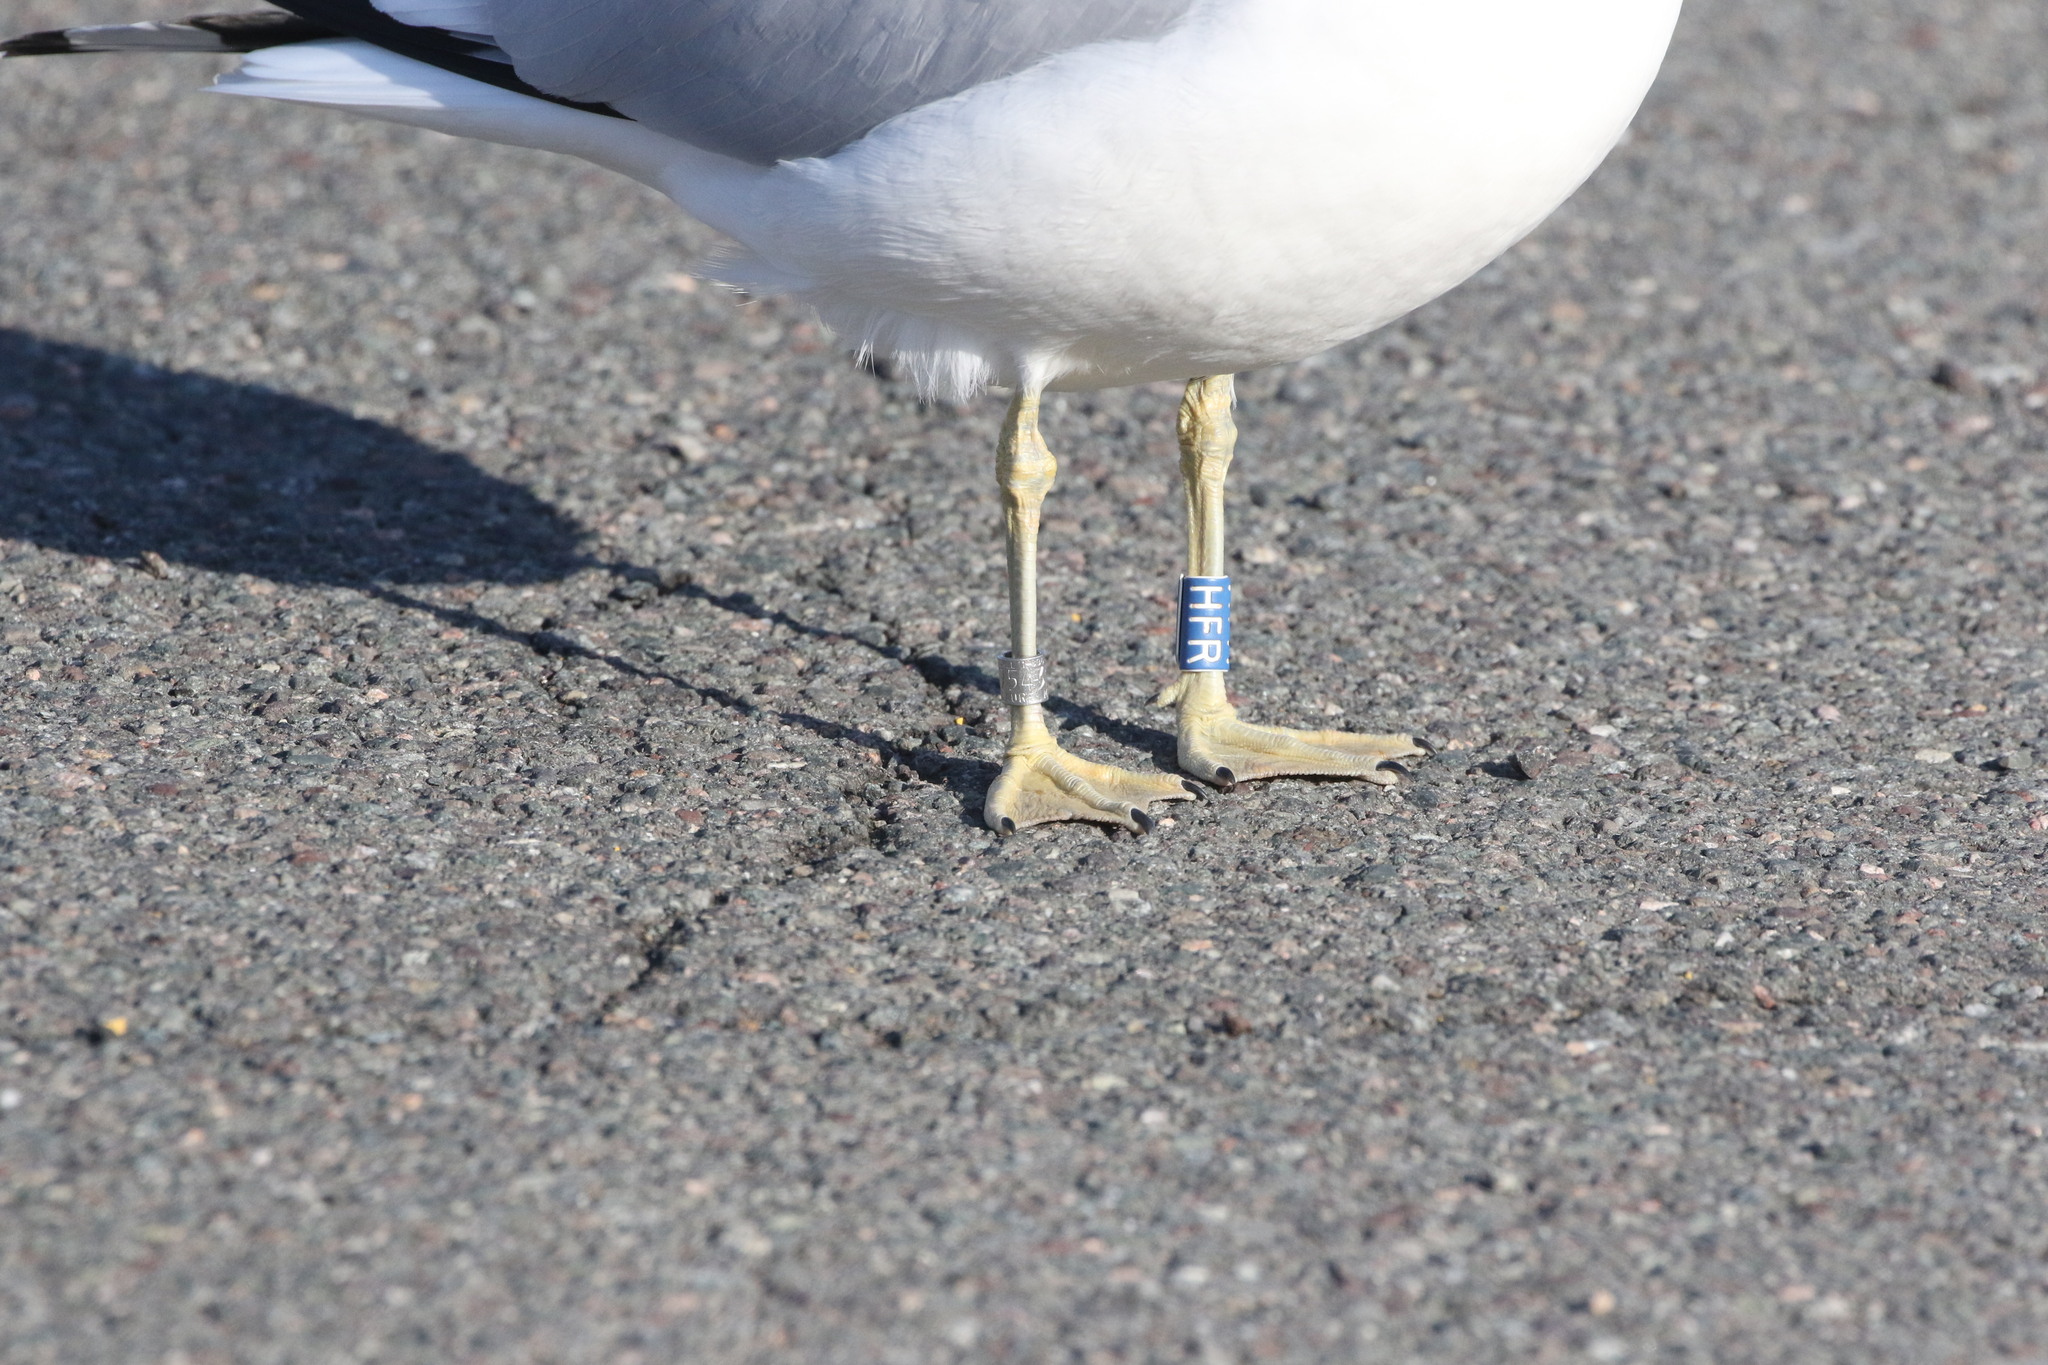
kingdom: Animalia
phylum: Chordata
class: Aves
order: Charadriiformes
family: Laridae
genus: Larus
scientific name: Larus delawarensis
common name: Ring-billed gull
